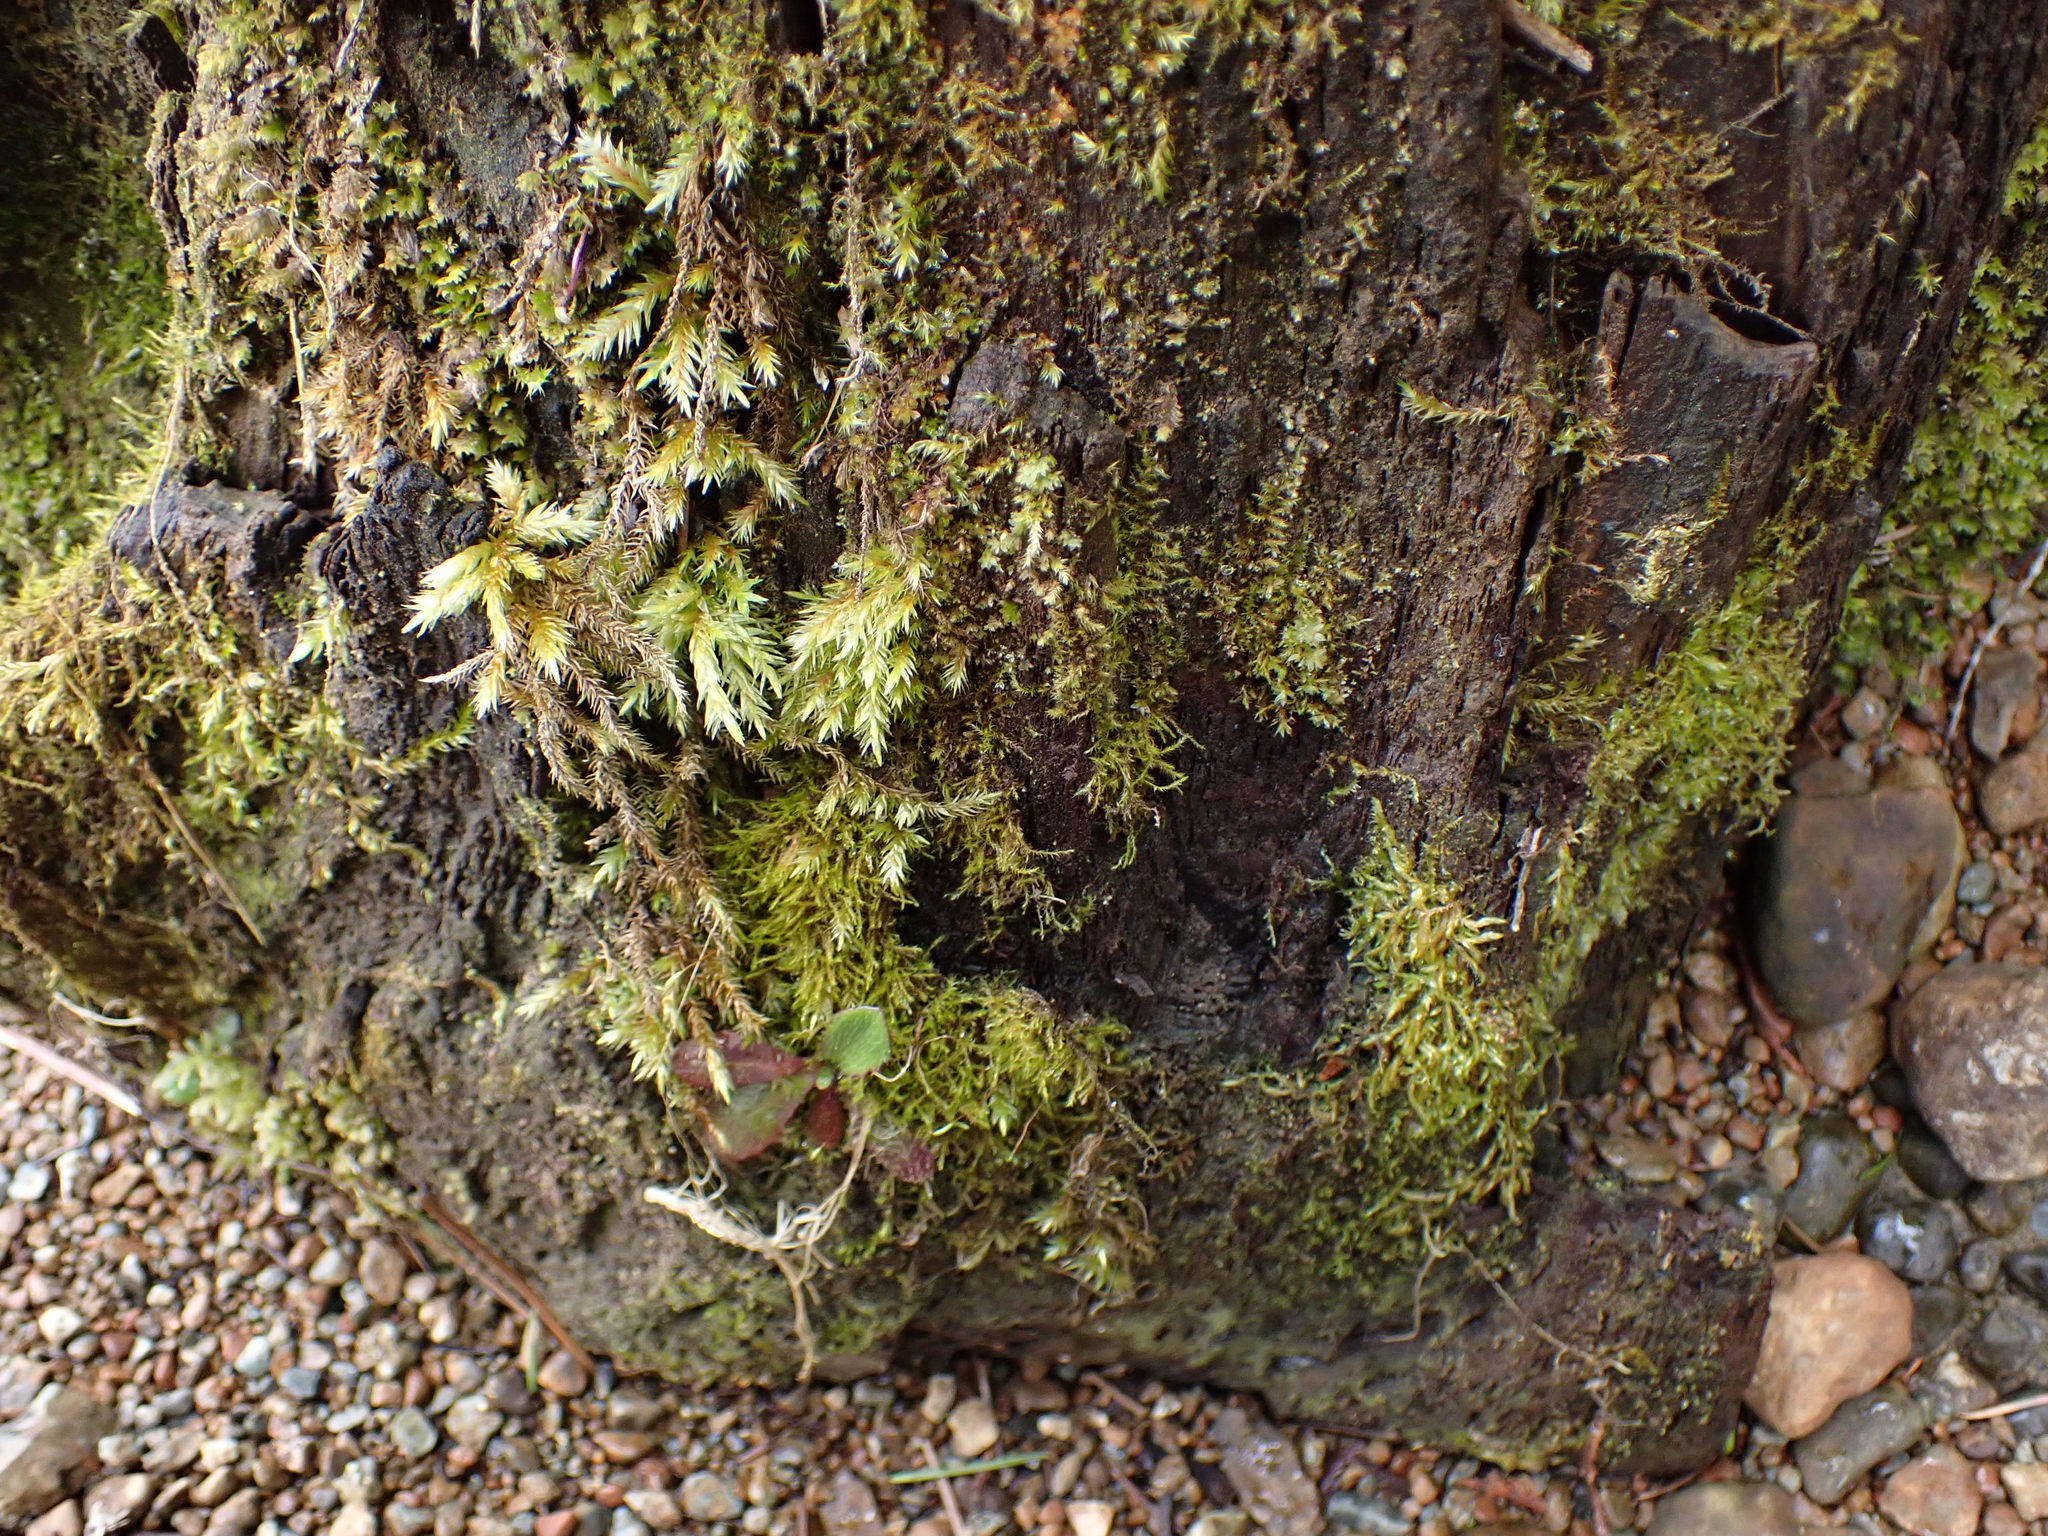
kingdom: Plantae
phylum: Bryophyta
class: Bryopsida
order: Hypnales
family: Climaciaceae
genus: Climacium
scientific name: Climacium dendroides
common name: Northern tree moss
